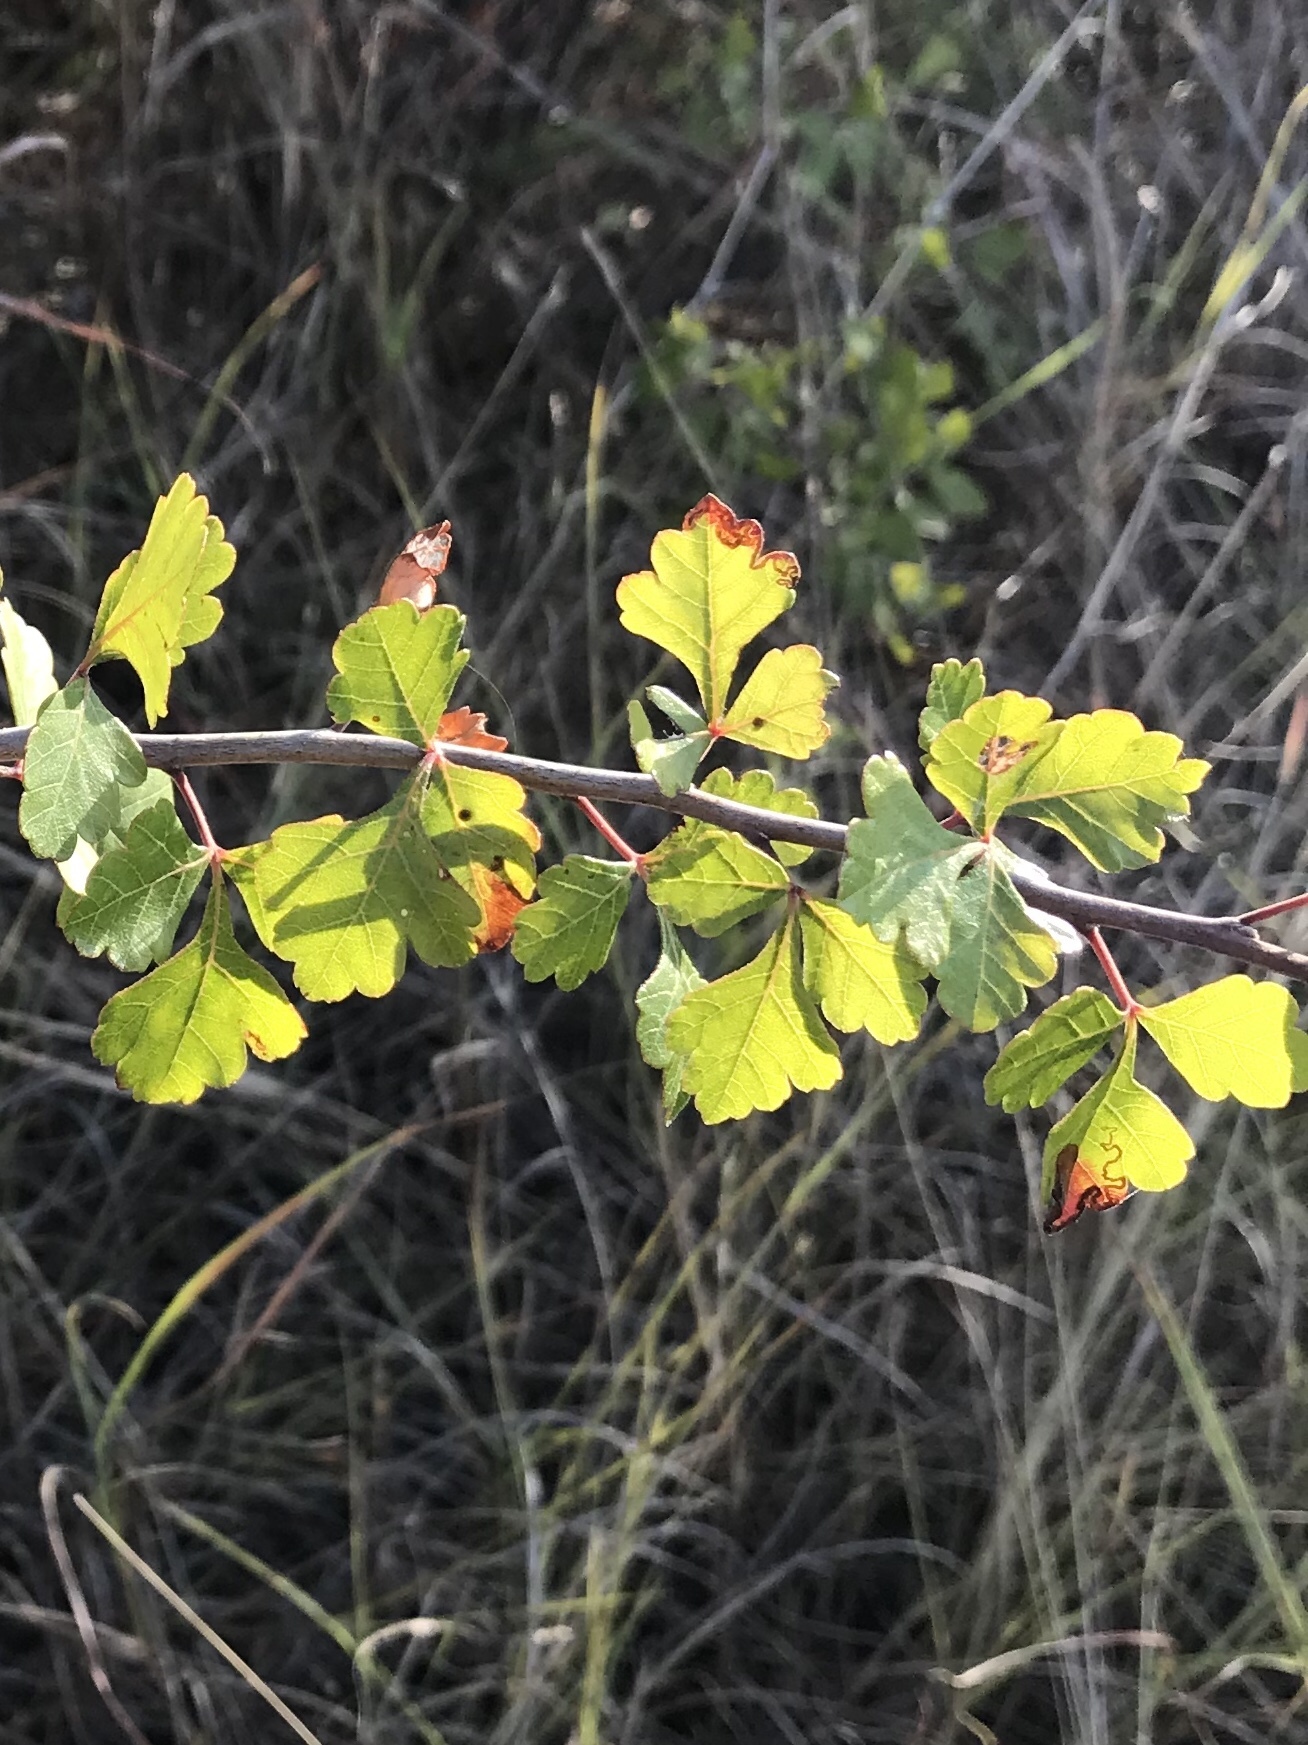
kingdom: Plantae
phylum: Tracheophyta
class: Magnoliopsida
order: Sapindales
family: Anacardiaceae
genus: Rhus
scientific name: Rhus aromatica
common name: Aromatic sumac
